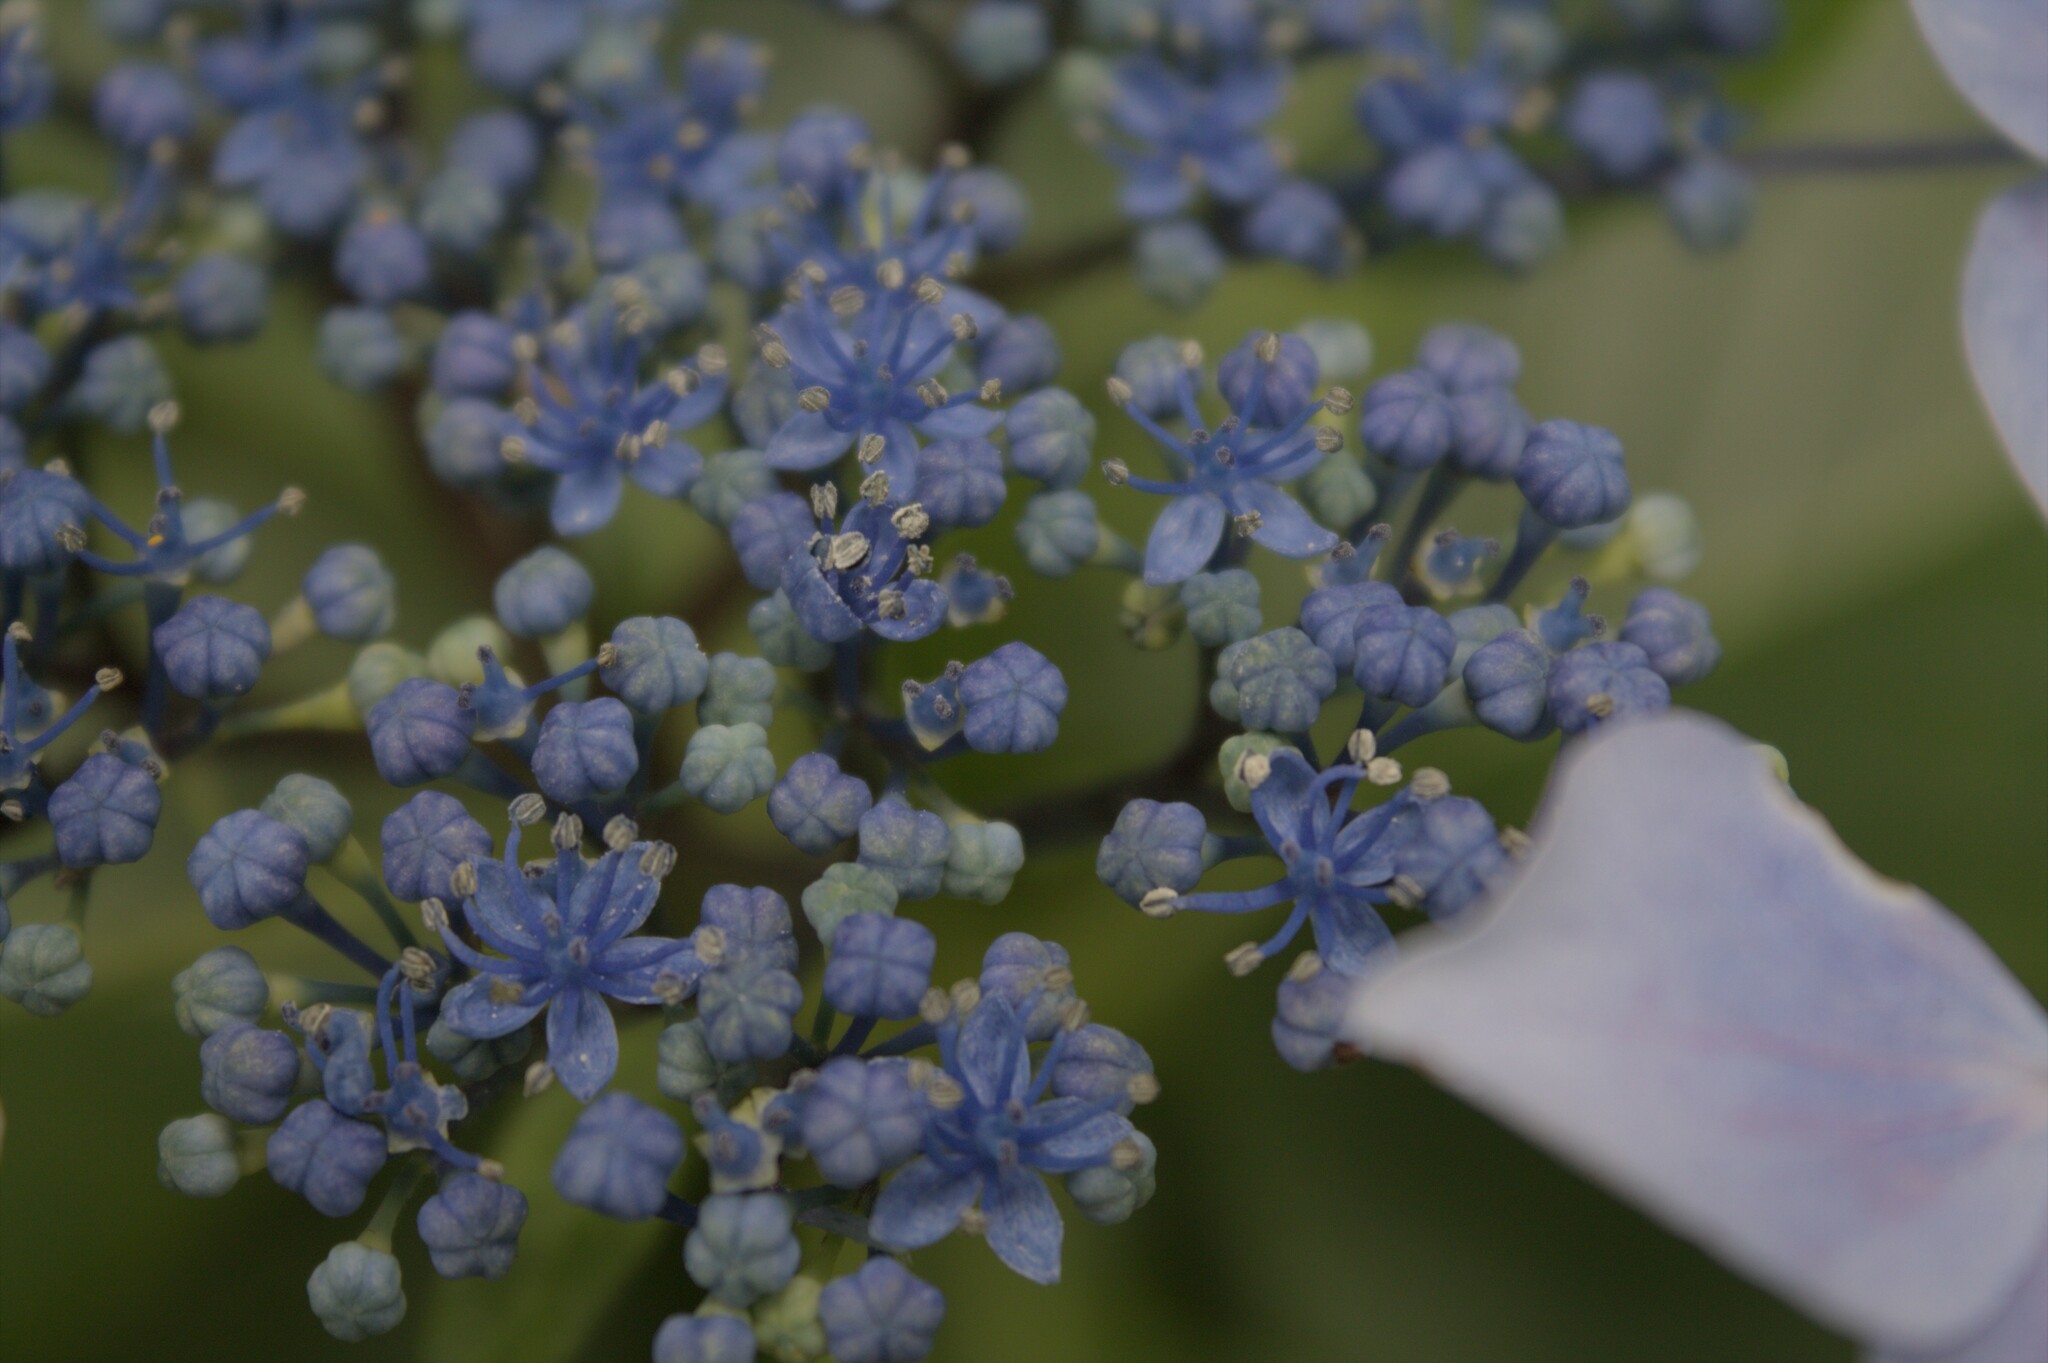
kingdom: Plantae
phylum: Tracheophyta
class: Magnoliopsida
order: Cornales
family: Hydrangeaceae
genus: Hydrangea
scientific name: Hydrangea macrophylla
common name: Hydrangea
